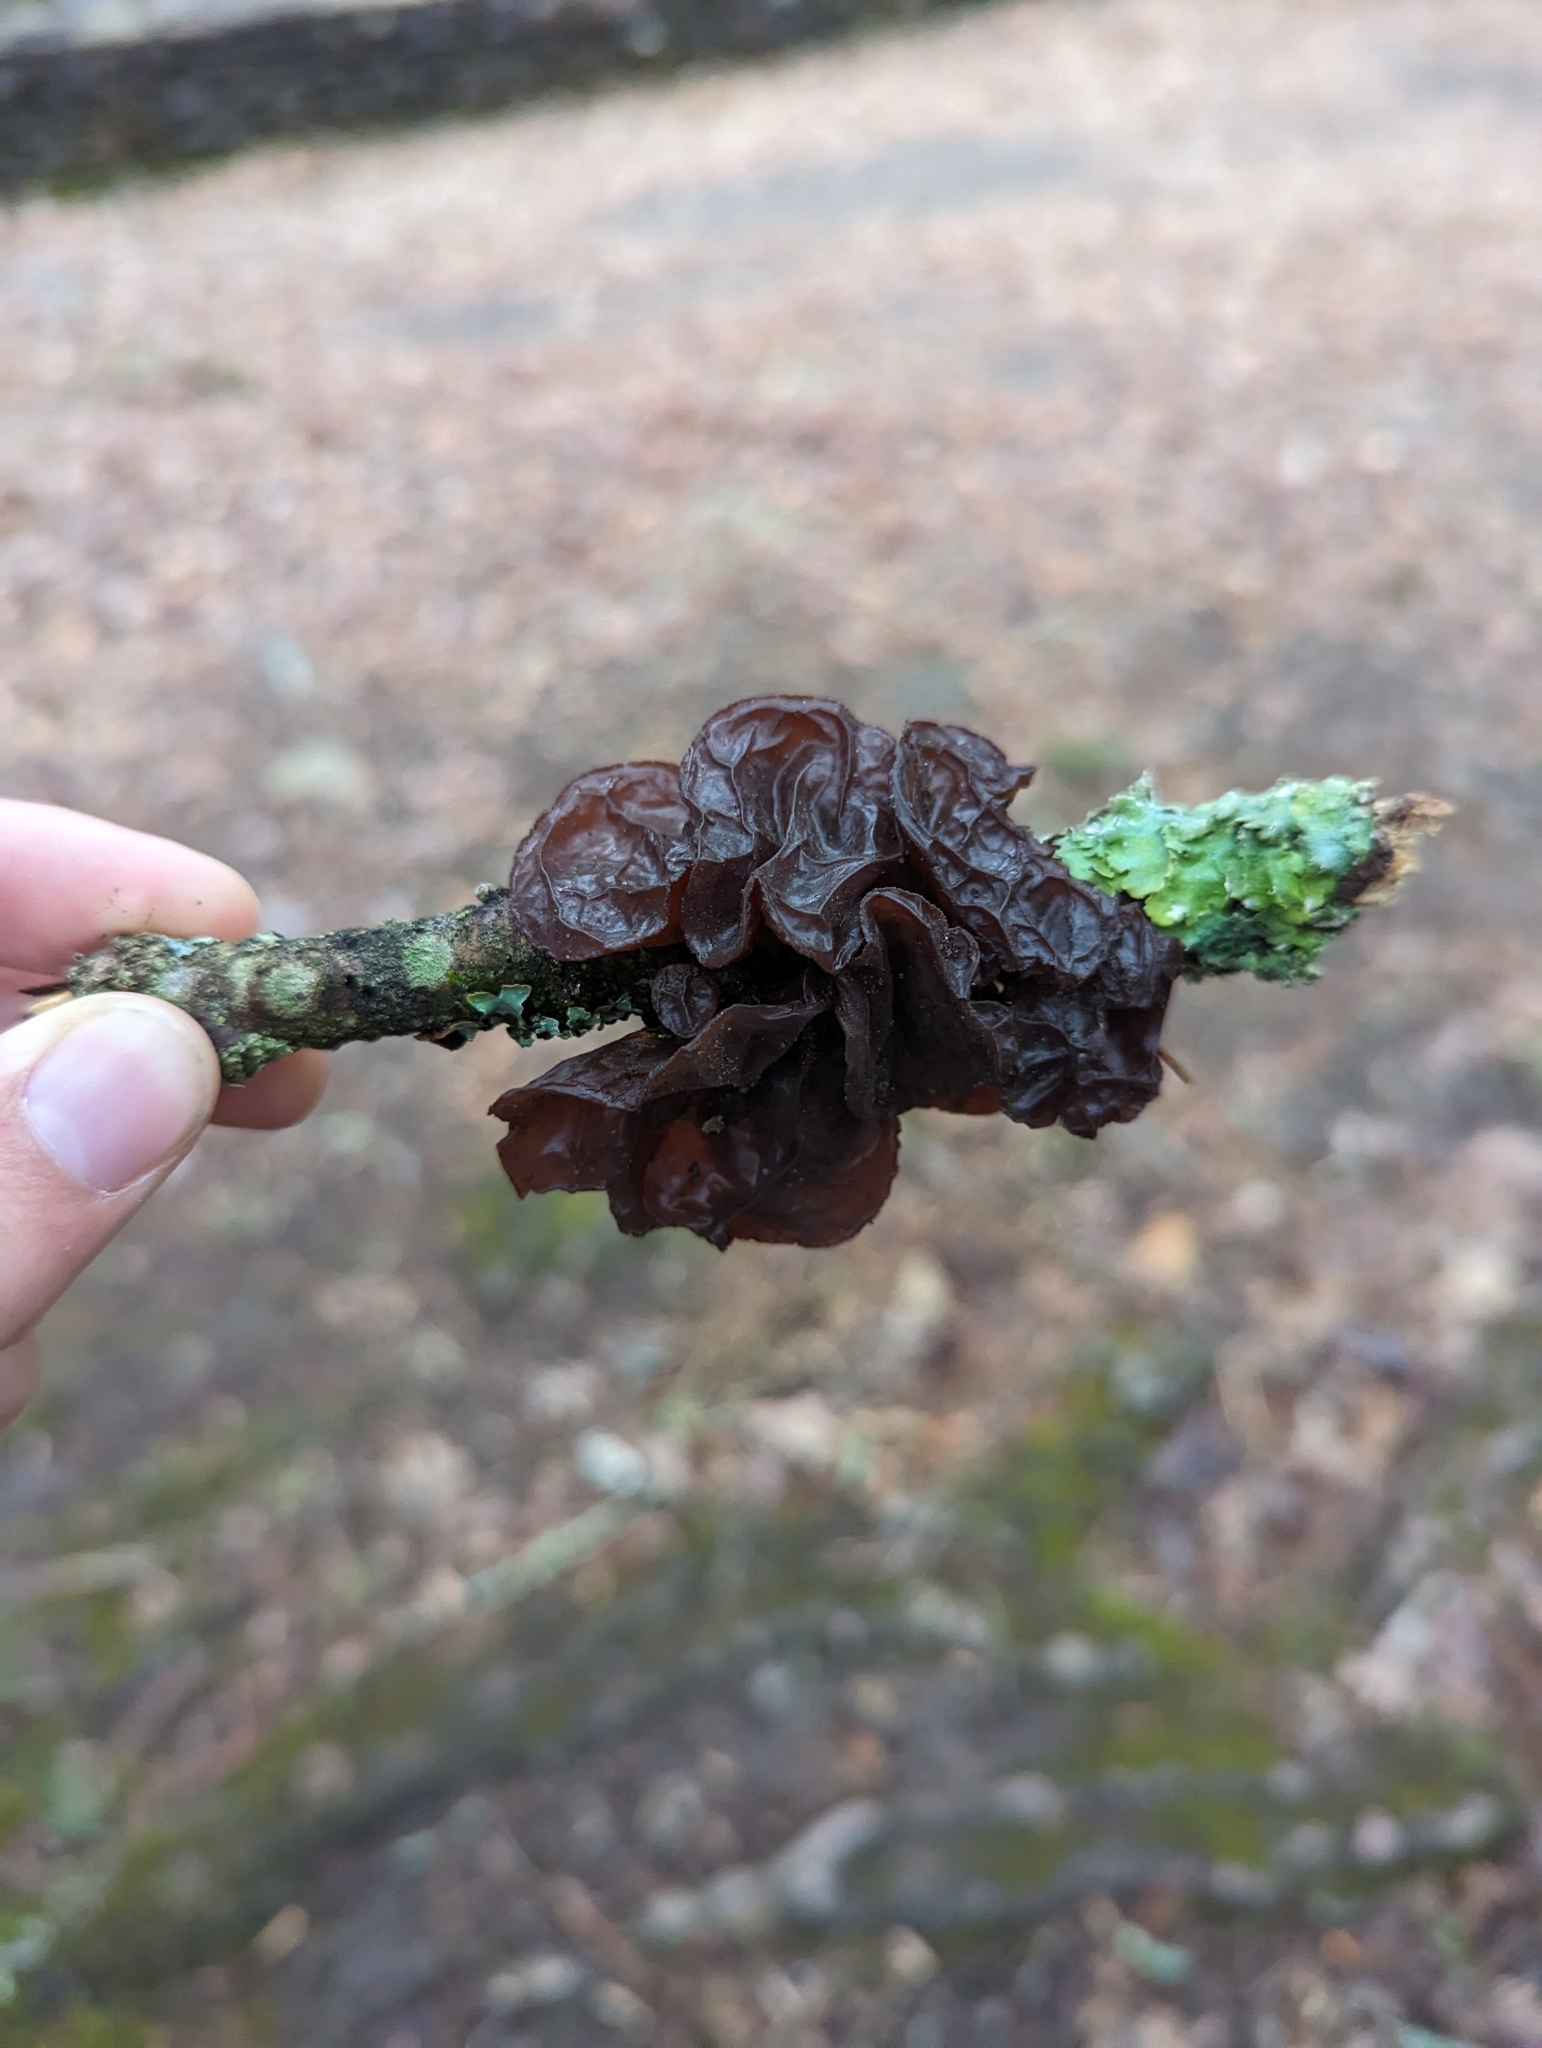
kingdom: Fungi
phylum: Basidiomycota
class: Agaricomycetes
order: Auriculariales
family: Auriculariaceae
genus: Exidia
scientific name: Exidia
